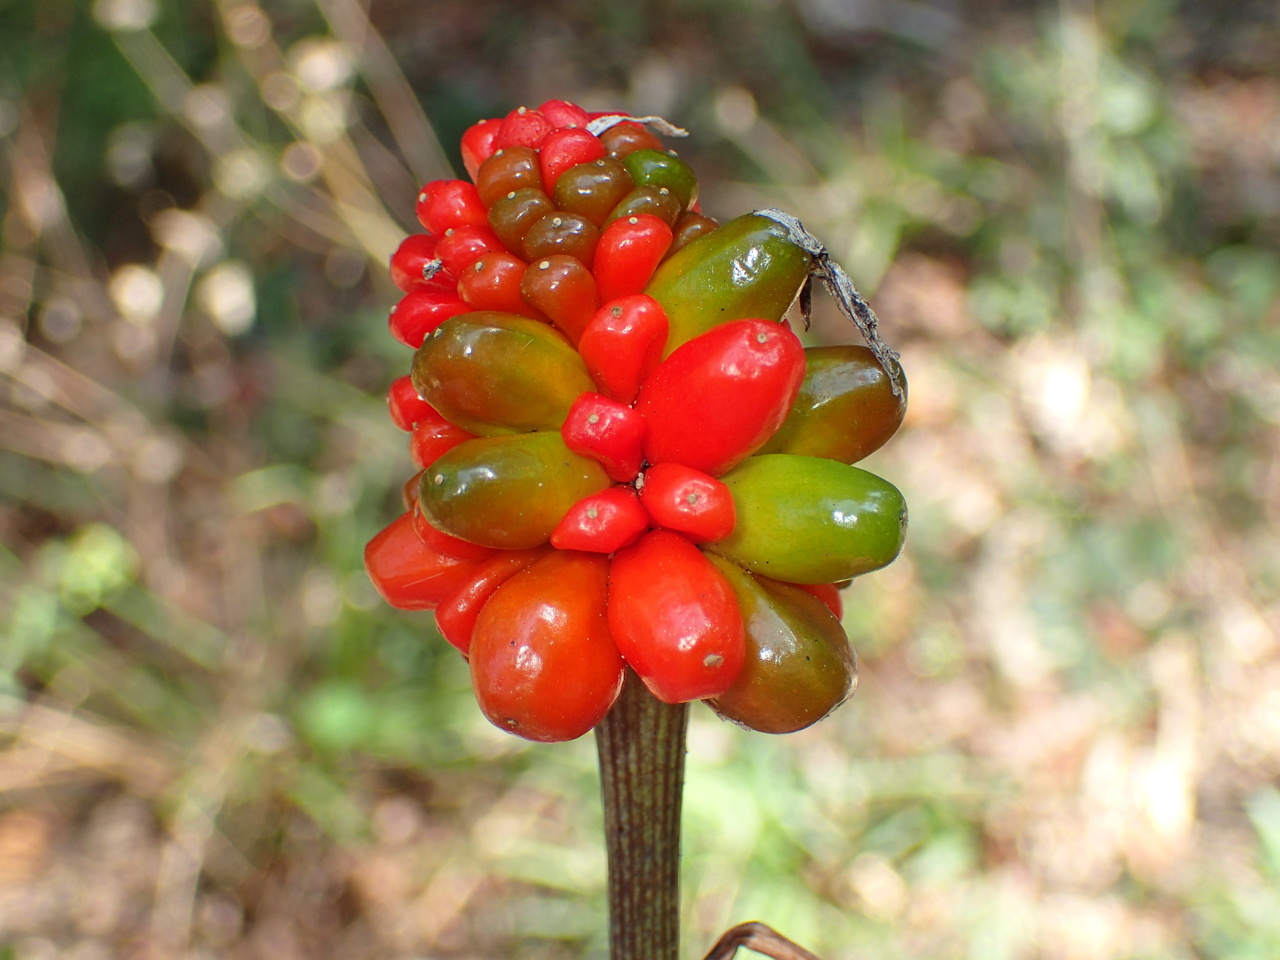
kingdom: Plantae
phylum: Tracheophyta
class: Liliopsida
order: Alismatales
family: Araceae
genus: Arisaema
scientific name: Arisaema triphyllum
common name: Jack-in-the-pulpit
